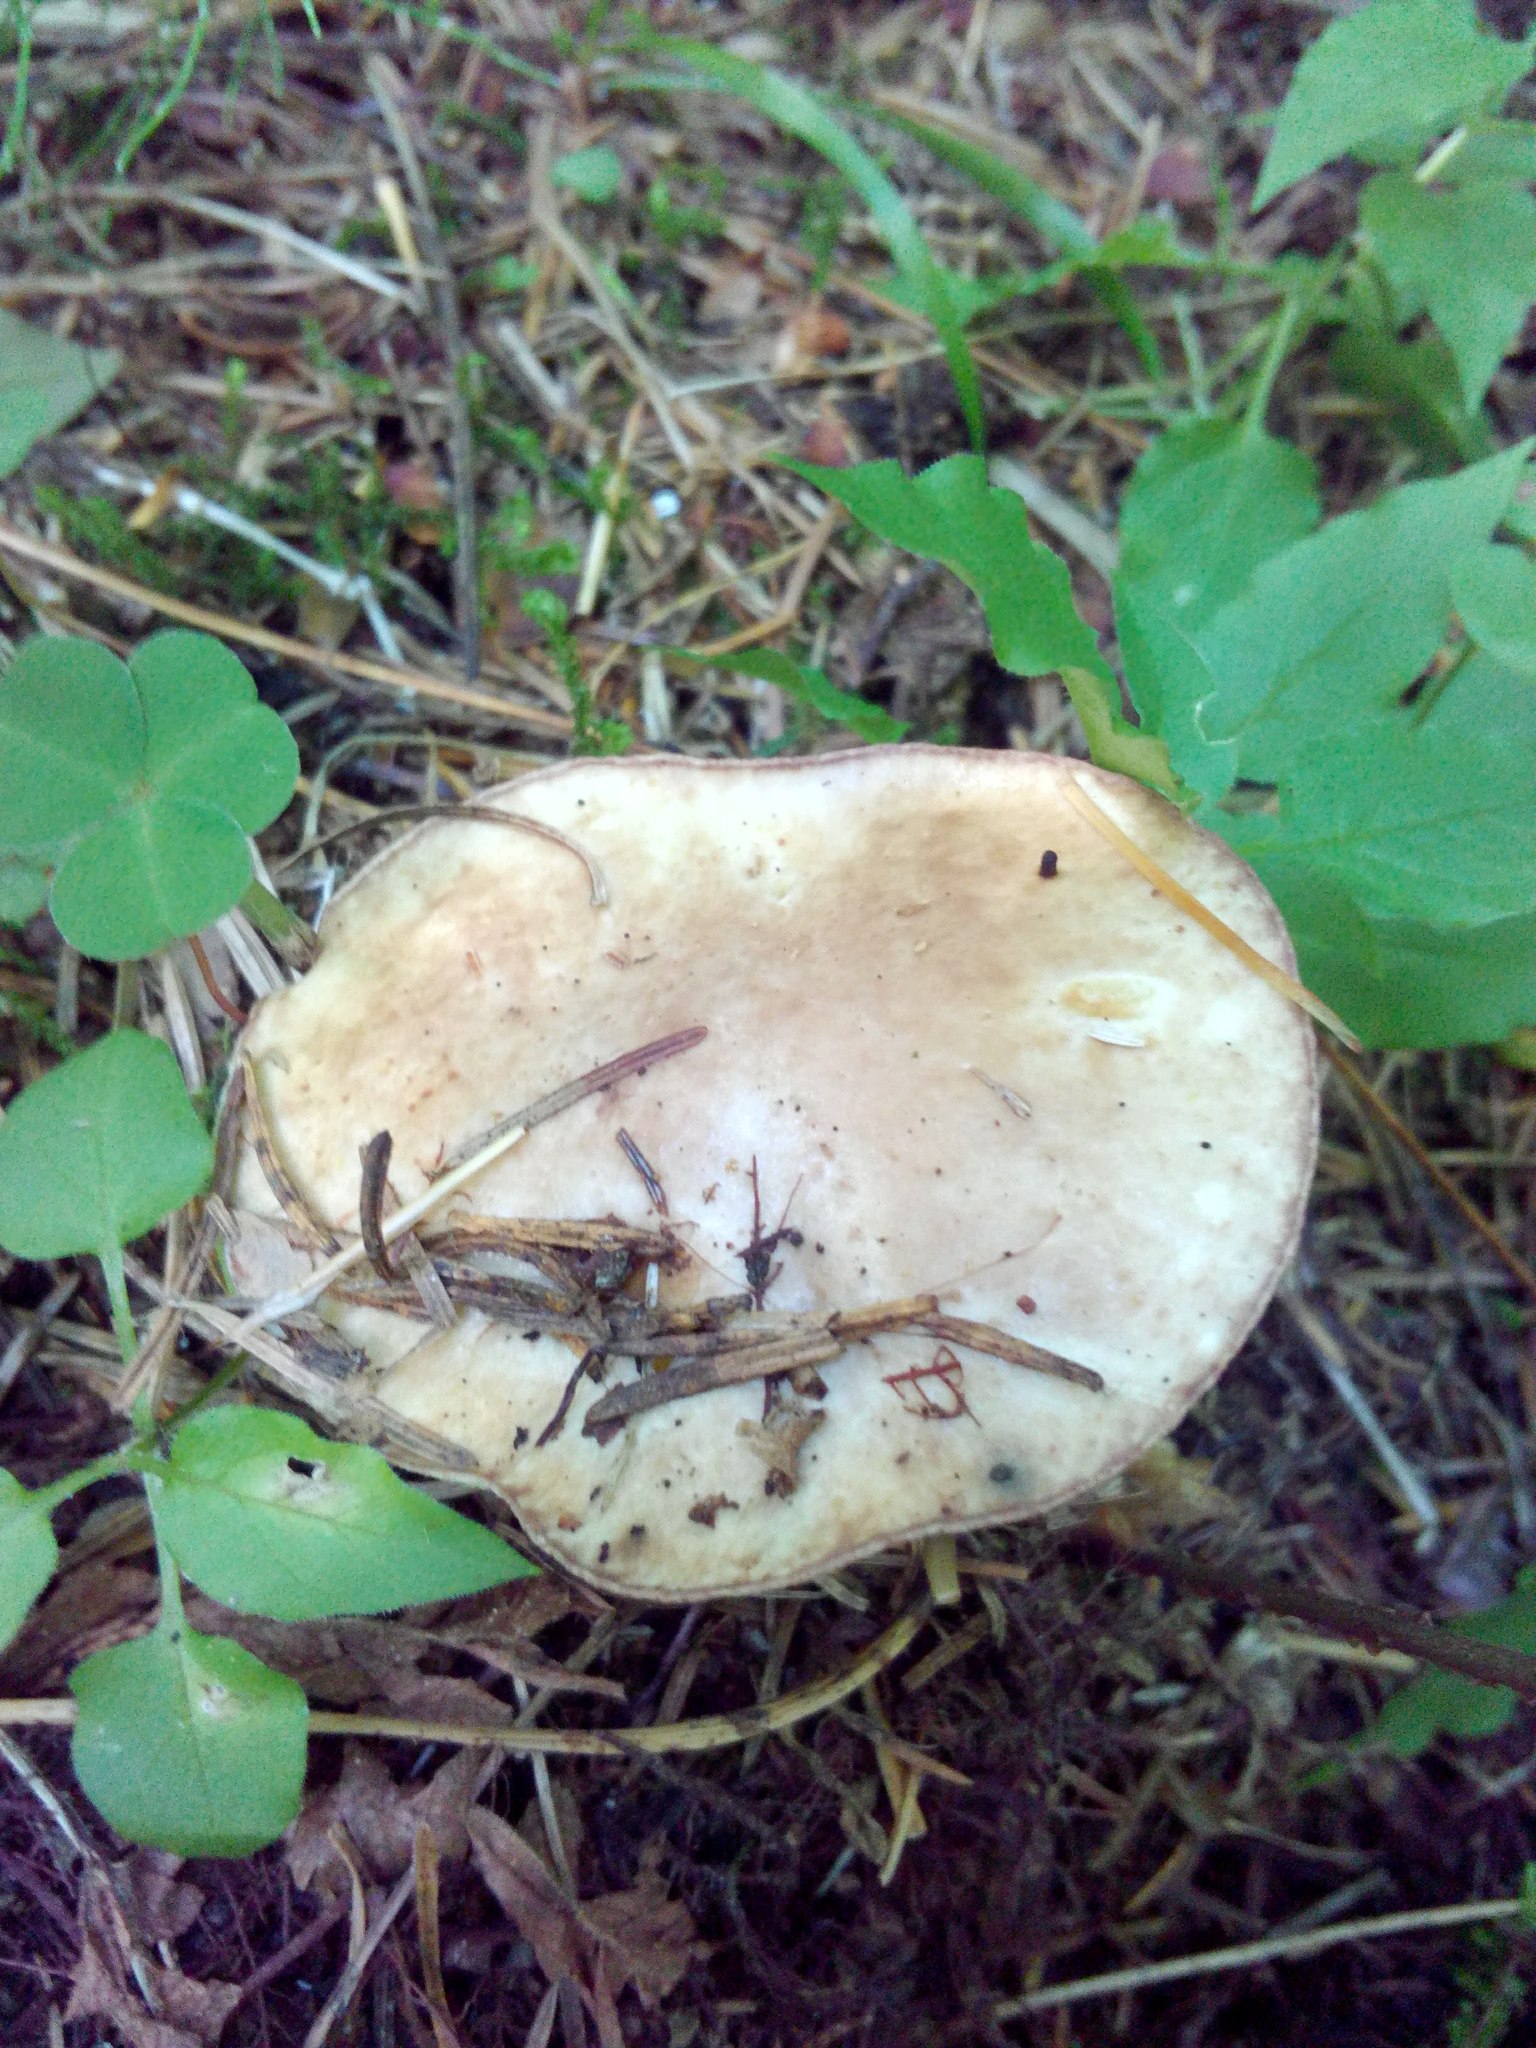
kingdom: Fungi
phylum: Basidiomycota
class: Agaricomycetes
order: Boletales
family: Suillaceae
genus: Suillus
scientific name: Suillus placidus
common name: Slippery white bolete
